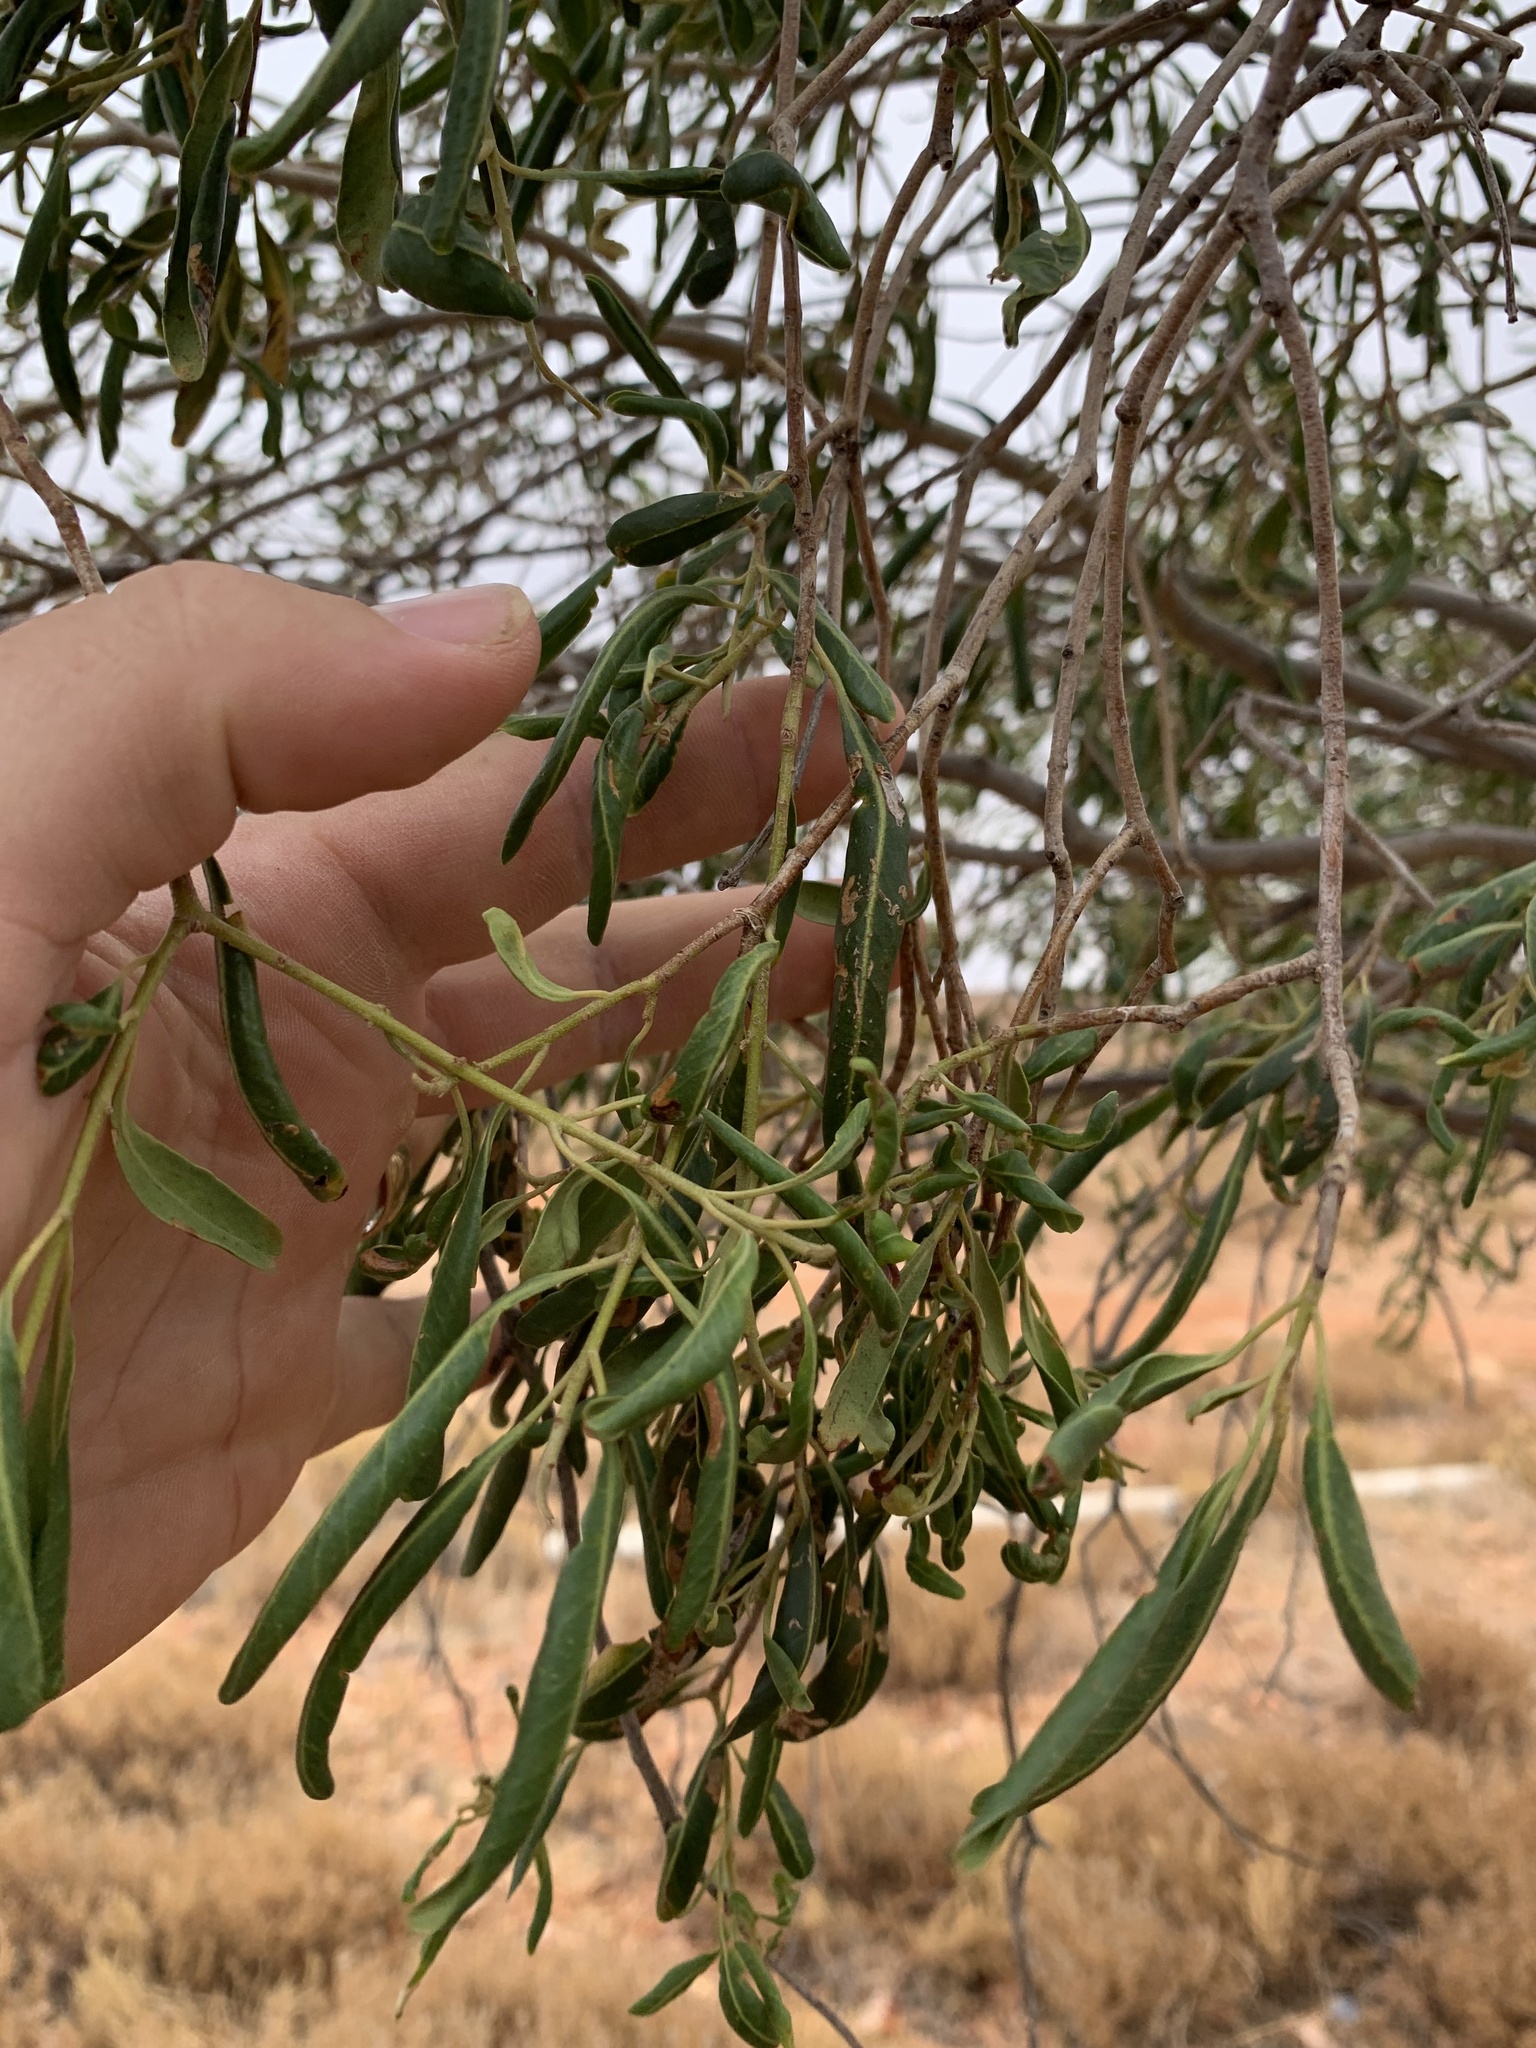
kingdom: Plantae
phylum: Tracheophyta
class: Magnoliopsida
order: Sapindales
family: Rutaceae
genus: Flindersia
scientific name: Flindersia maculosa
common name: Leopardtree
